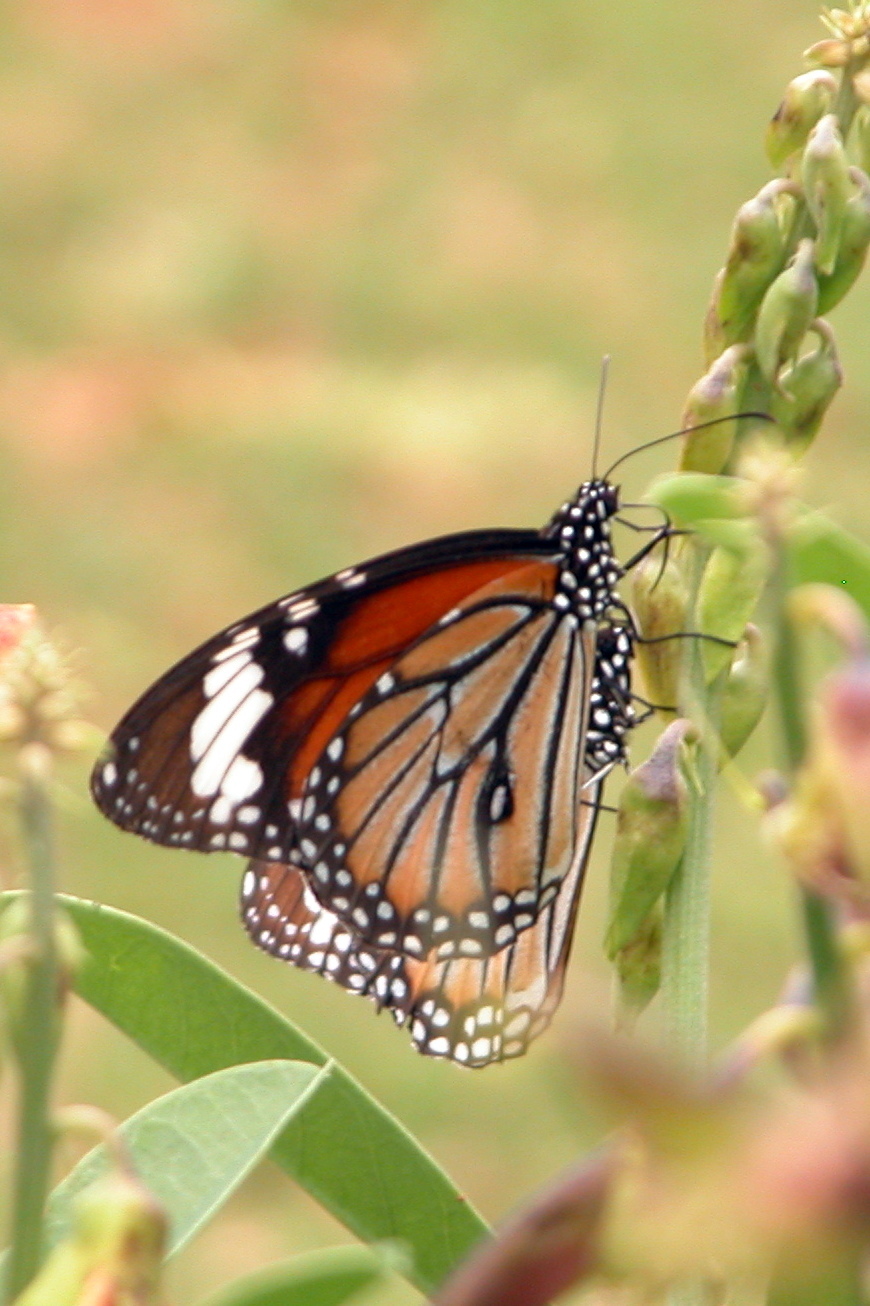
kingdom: Animalia
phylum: Arthropoda
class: Insecta
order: Lepidoptera
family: Nymphalidae
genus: Danaus
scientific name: Danaus genutia
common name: Common tiger butterfly
